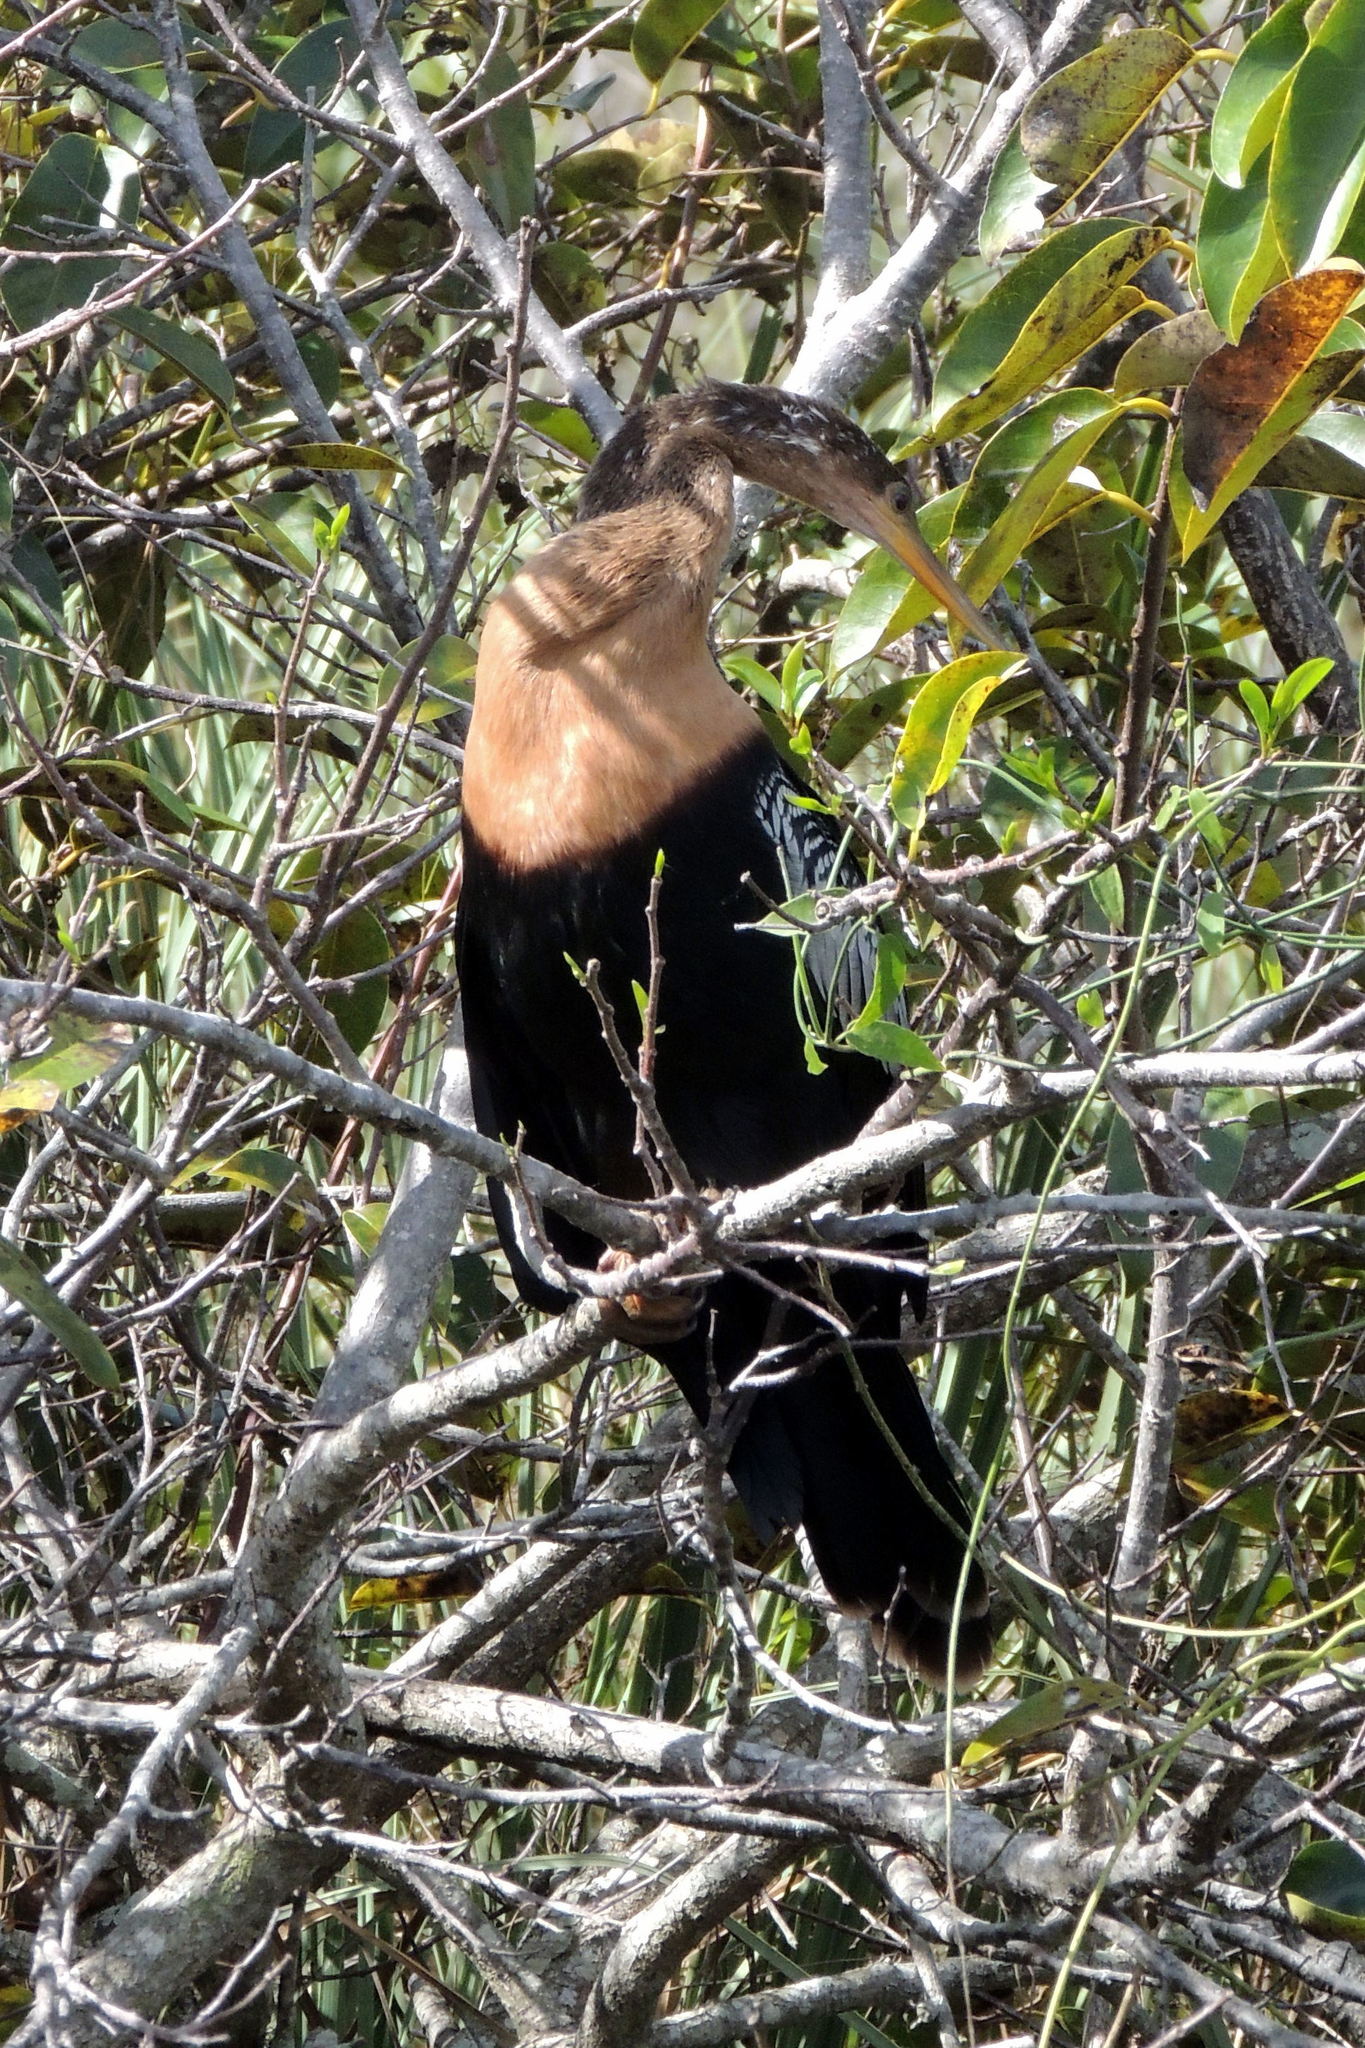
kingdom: Animalia
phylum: Chordata
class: Aves
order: Suliformes
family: Anhingidae
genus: Anhinga
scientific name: Anhinga anhinga
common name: Anhinga
